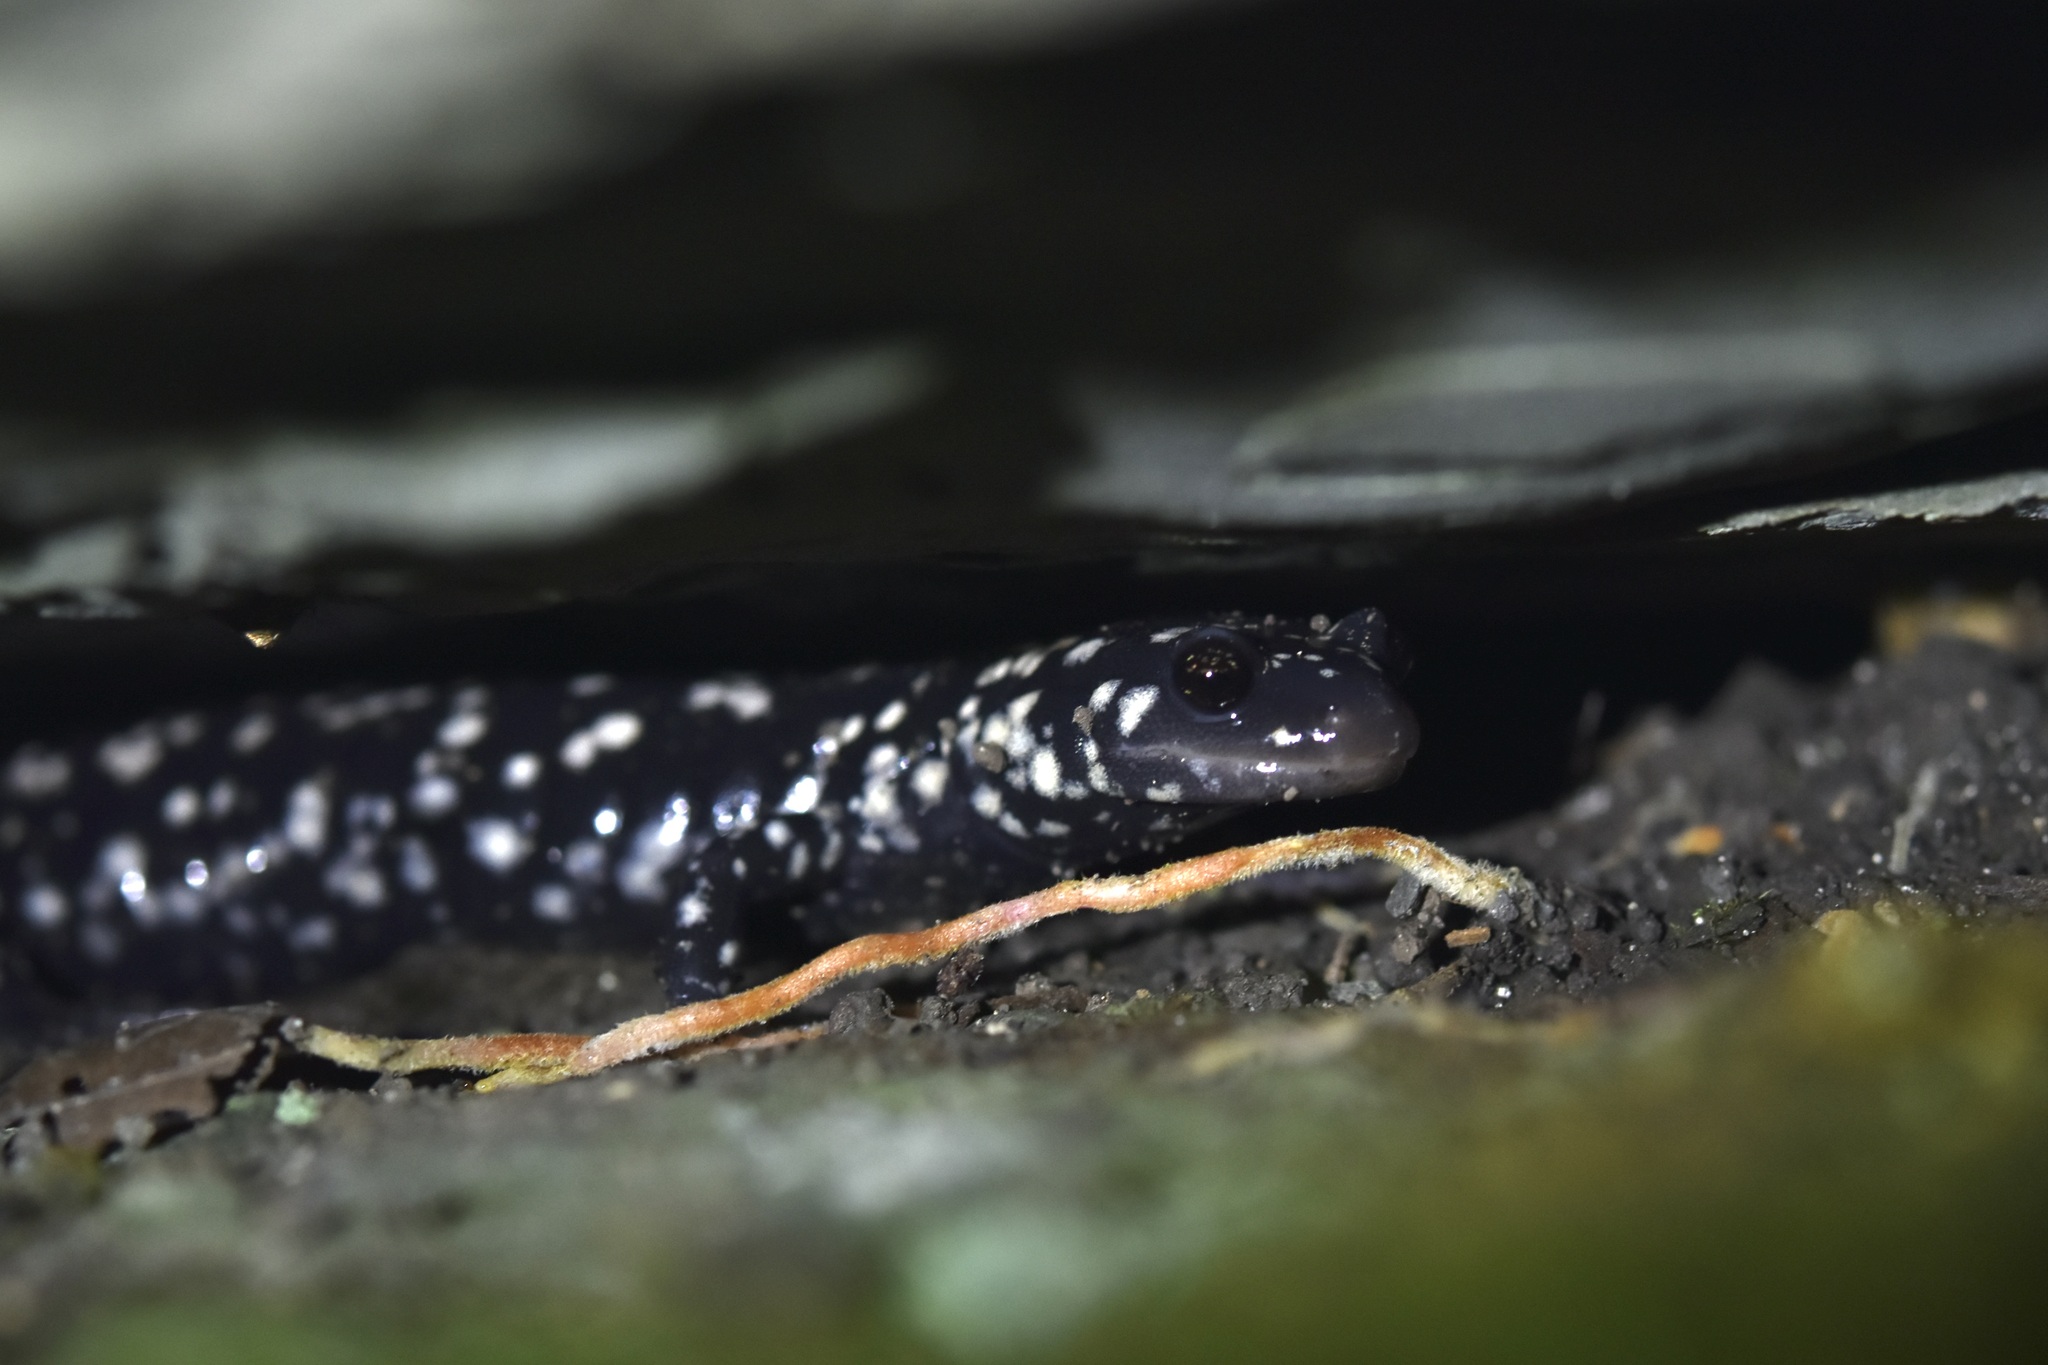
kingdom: Animalia
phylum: Chordata
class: Amphibia
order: Caudata
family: Plethodontidae
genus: Plethodon
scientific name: Plethodon glutinosus
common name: Northern slimy salamander
